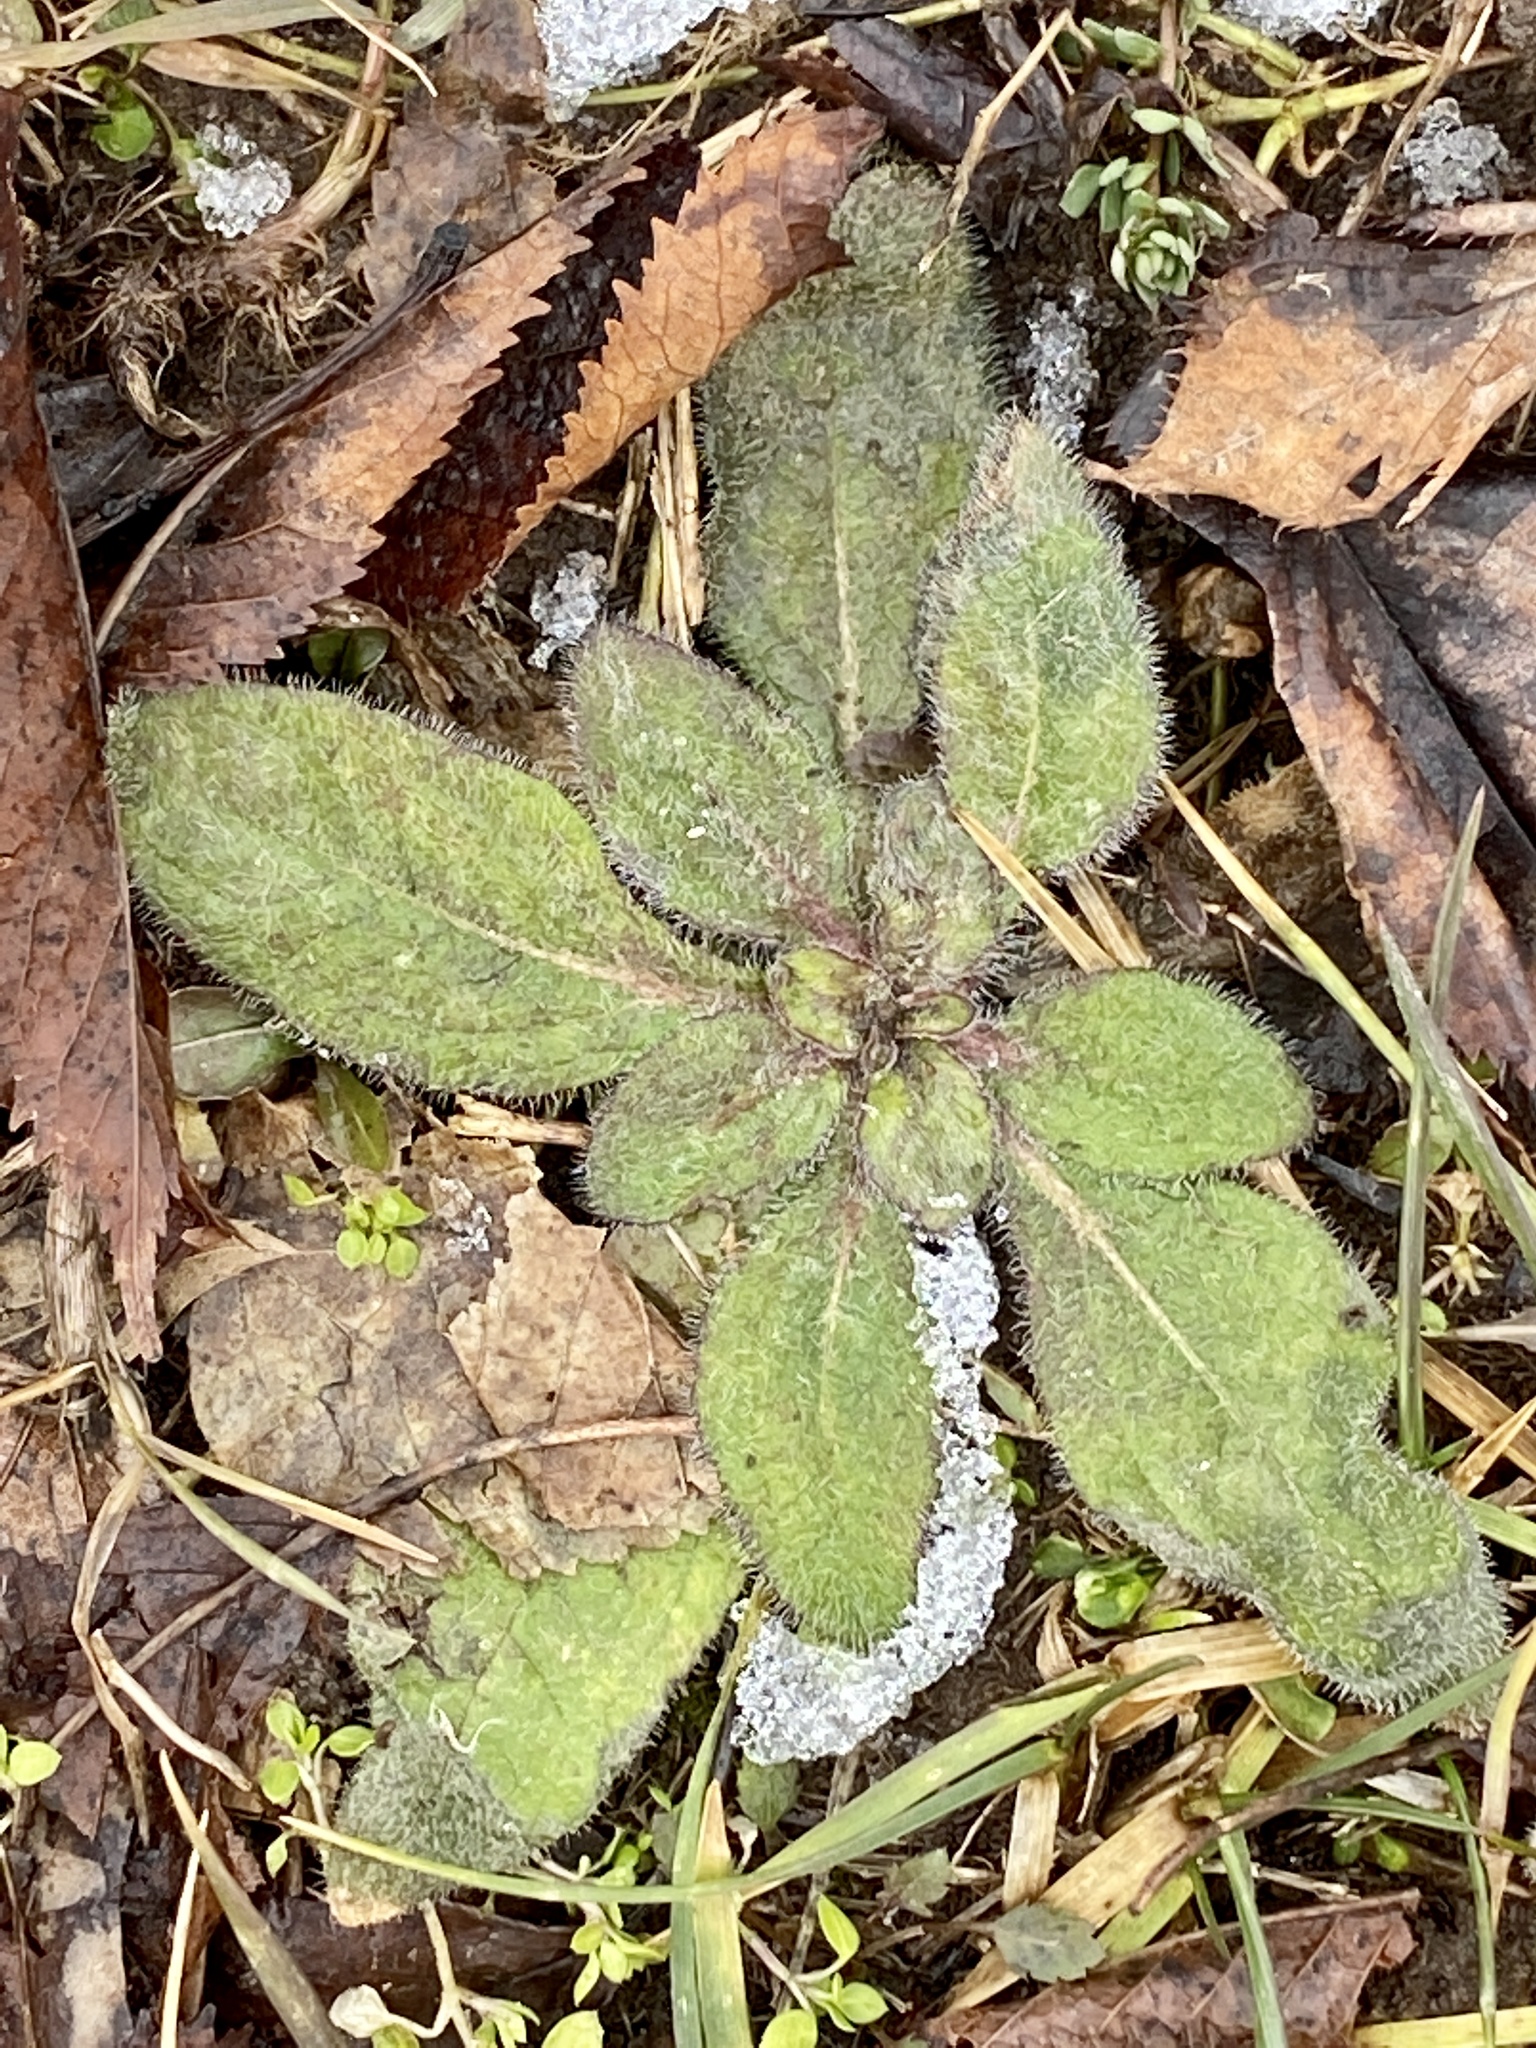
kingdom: Plantae
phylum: Tracheophyta
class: Magnoliopsida
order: Asterales
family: Asteraceae
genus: Rudbeckia
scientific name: Rudbeckia hirta
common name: Black-eyed-susan
